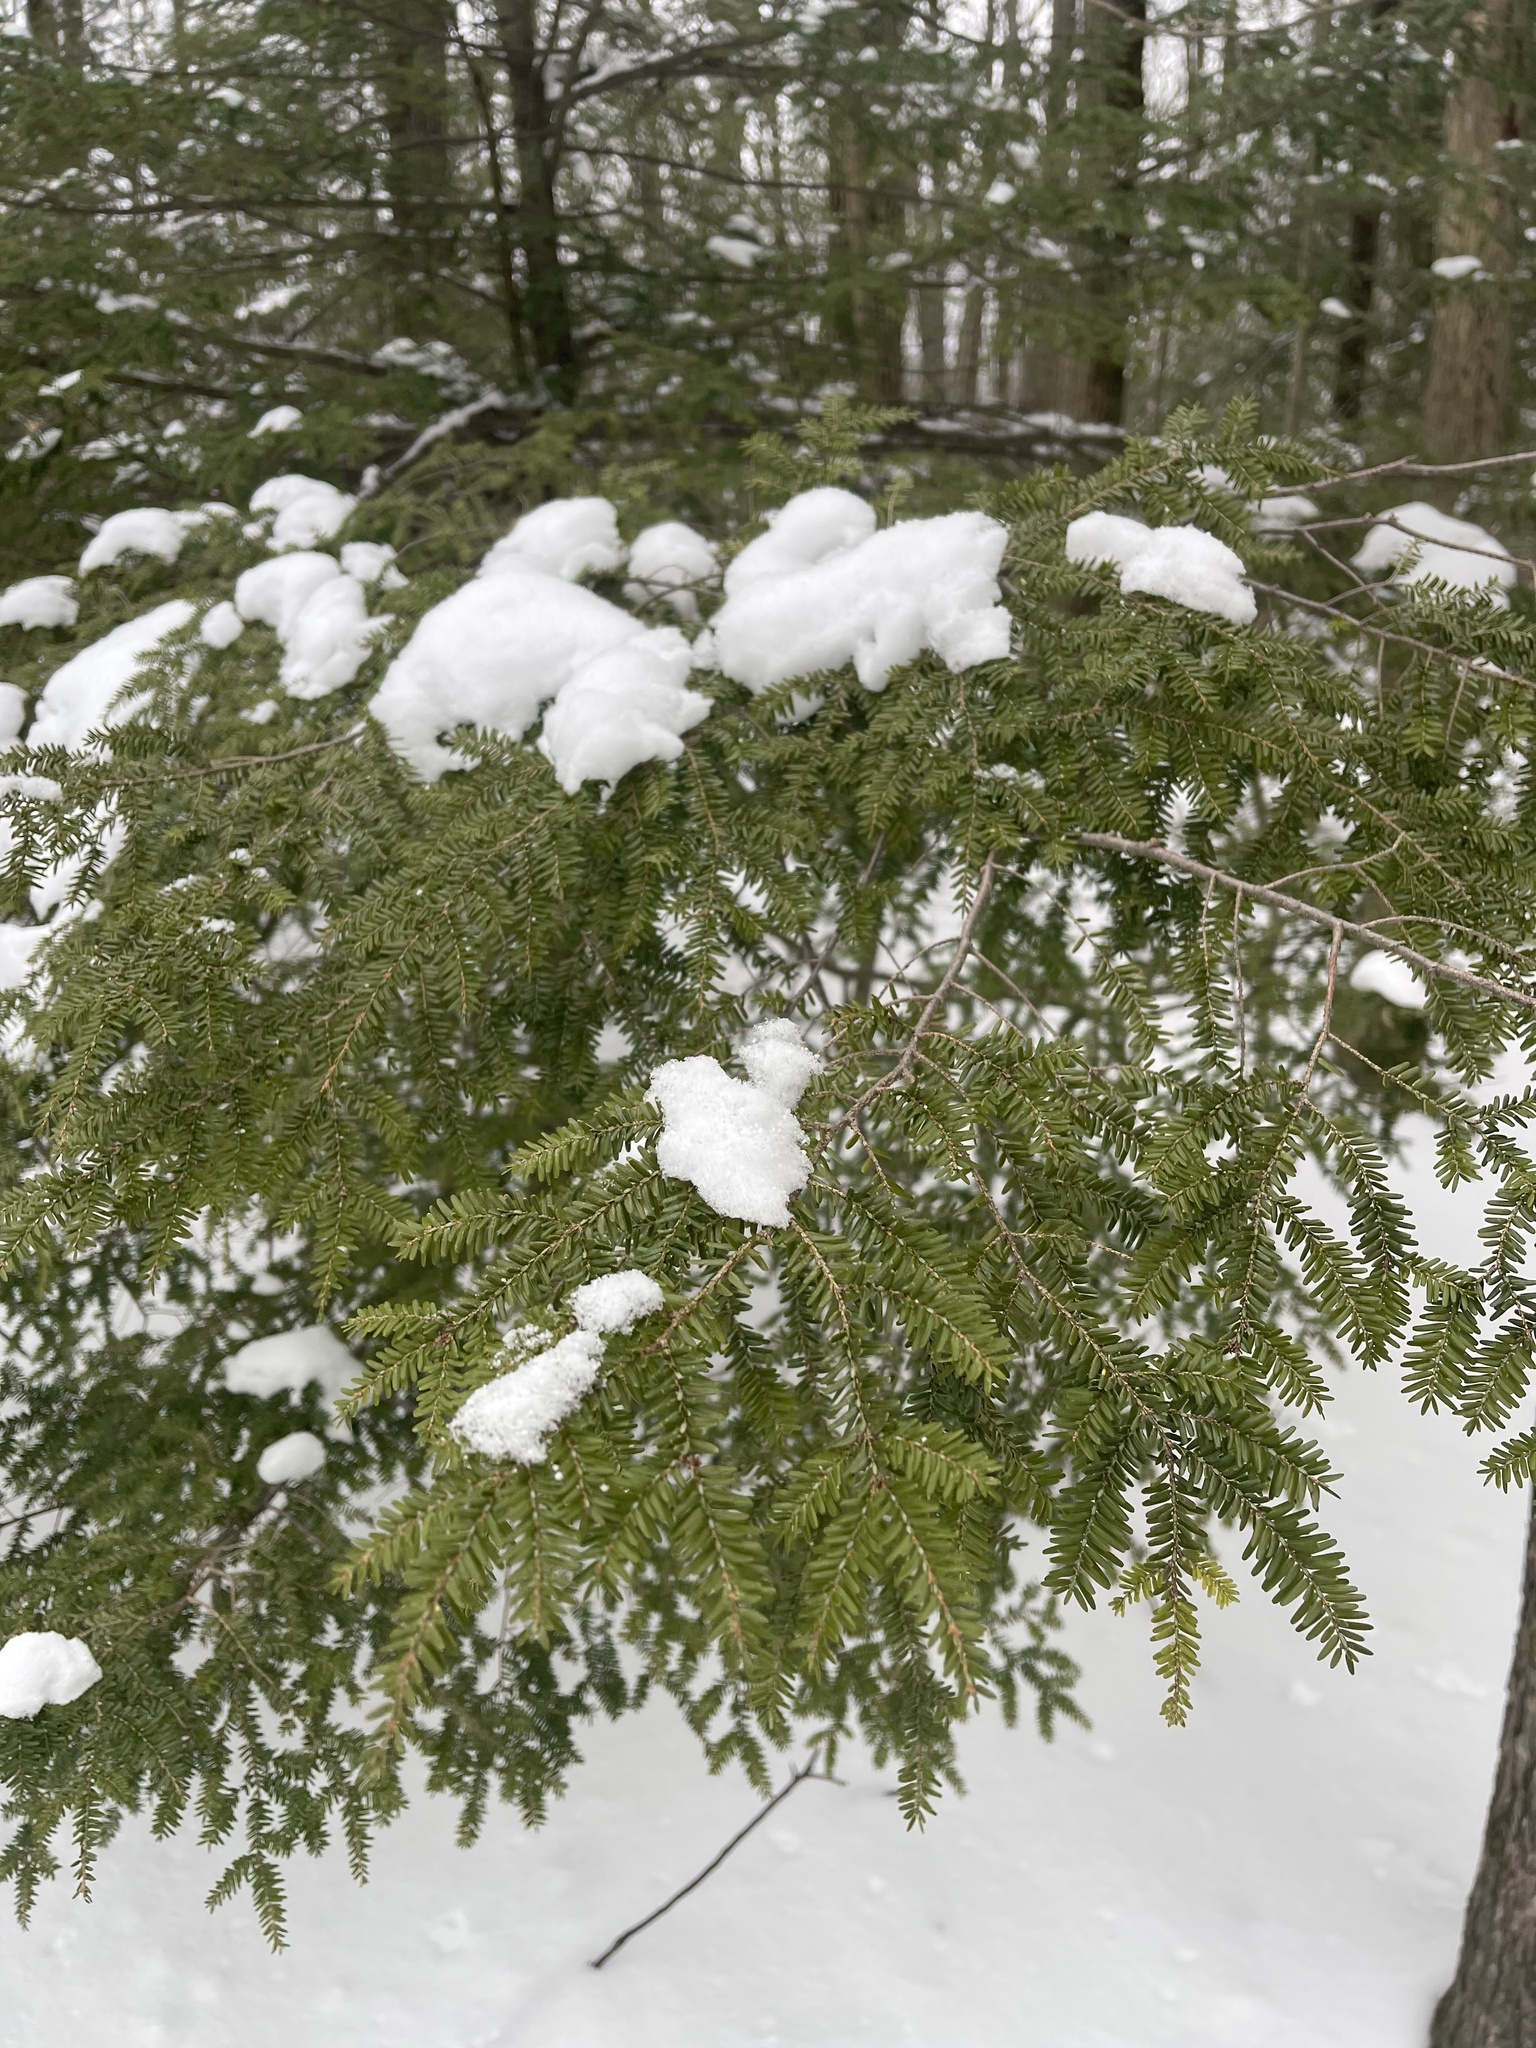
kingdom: Plantae
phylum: Tracheophyta
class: Pinopsida
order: Pinales
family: Pinaceae
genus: Tsuga
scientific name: Tsuga canadensis
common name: Eastern hemlock
